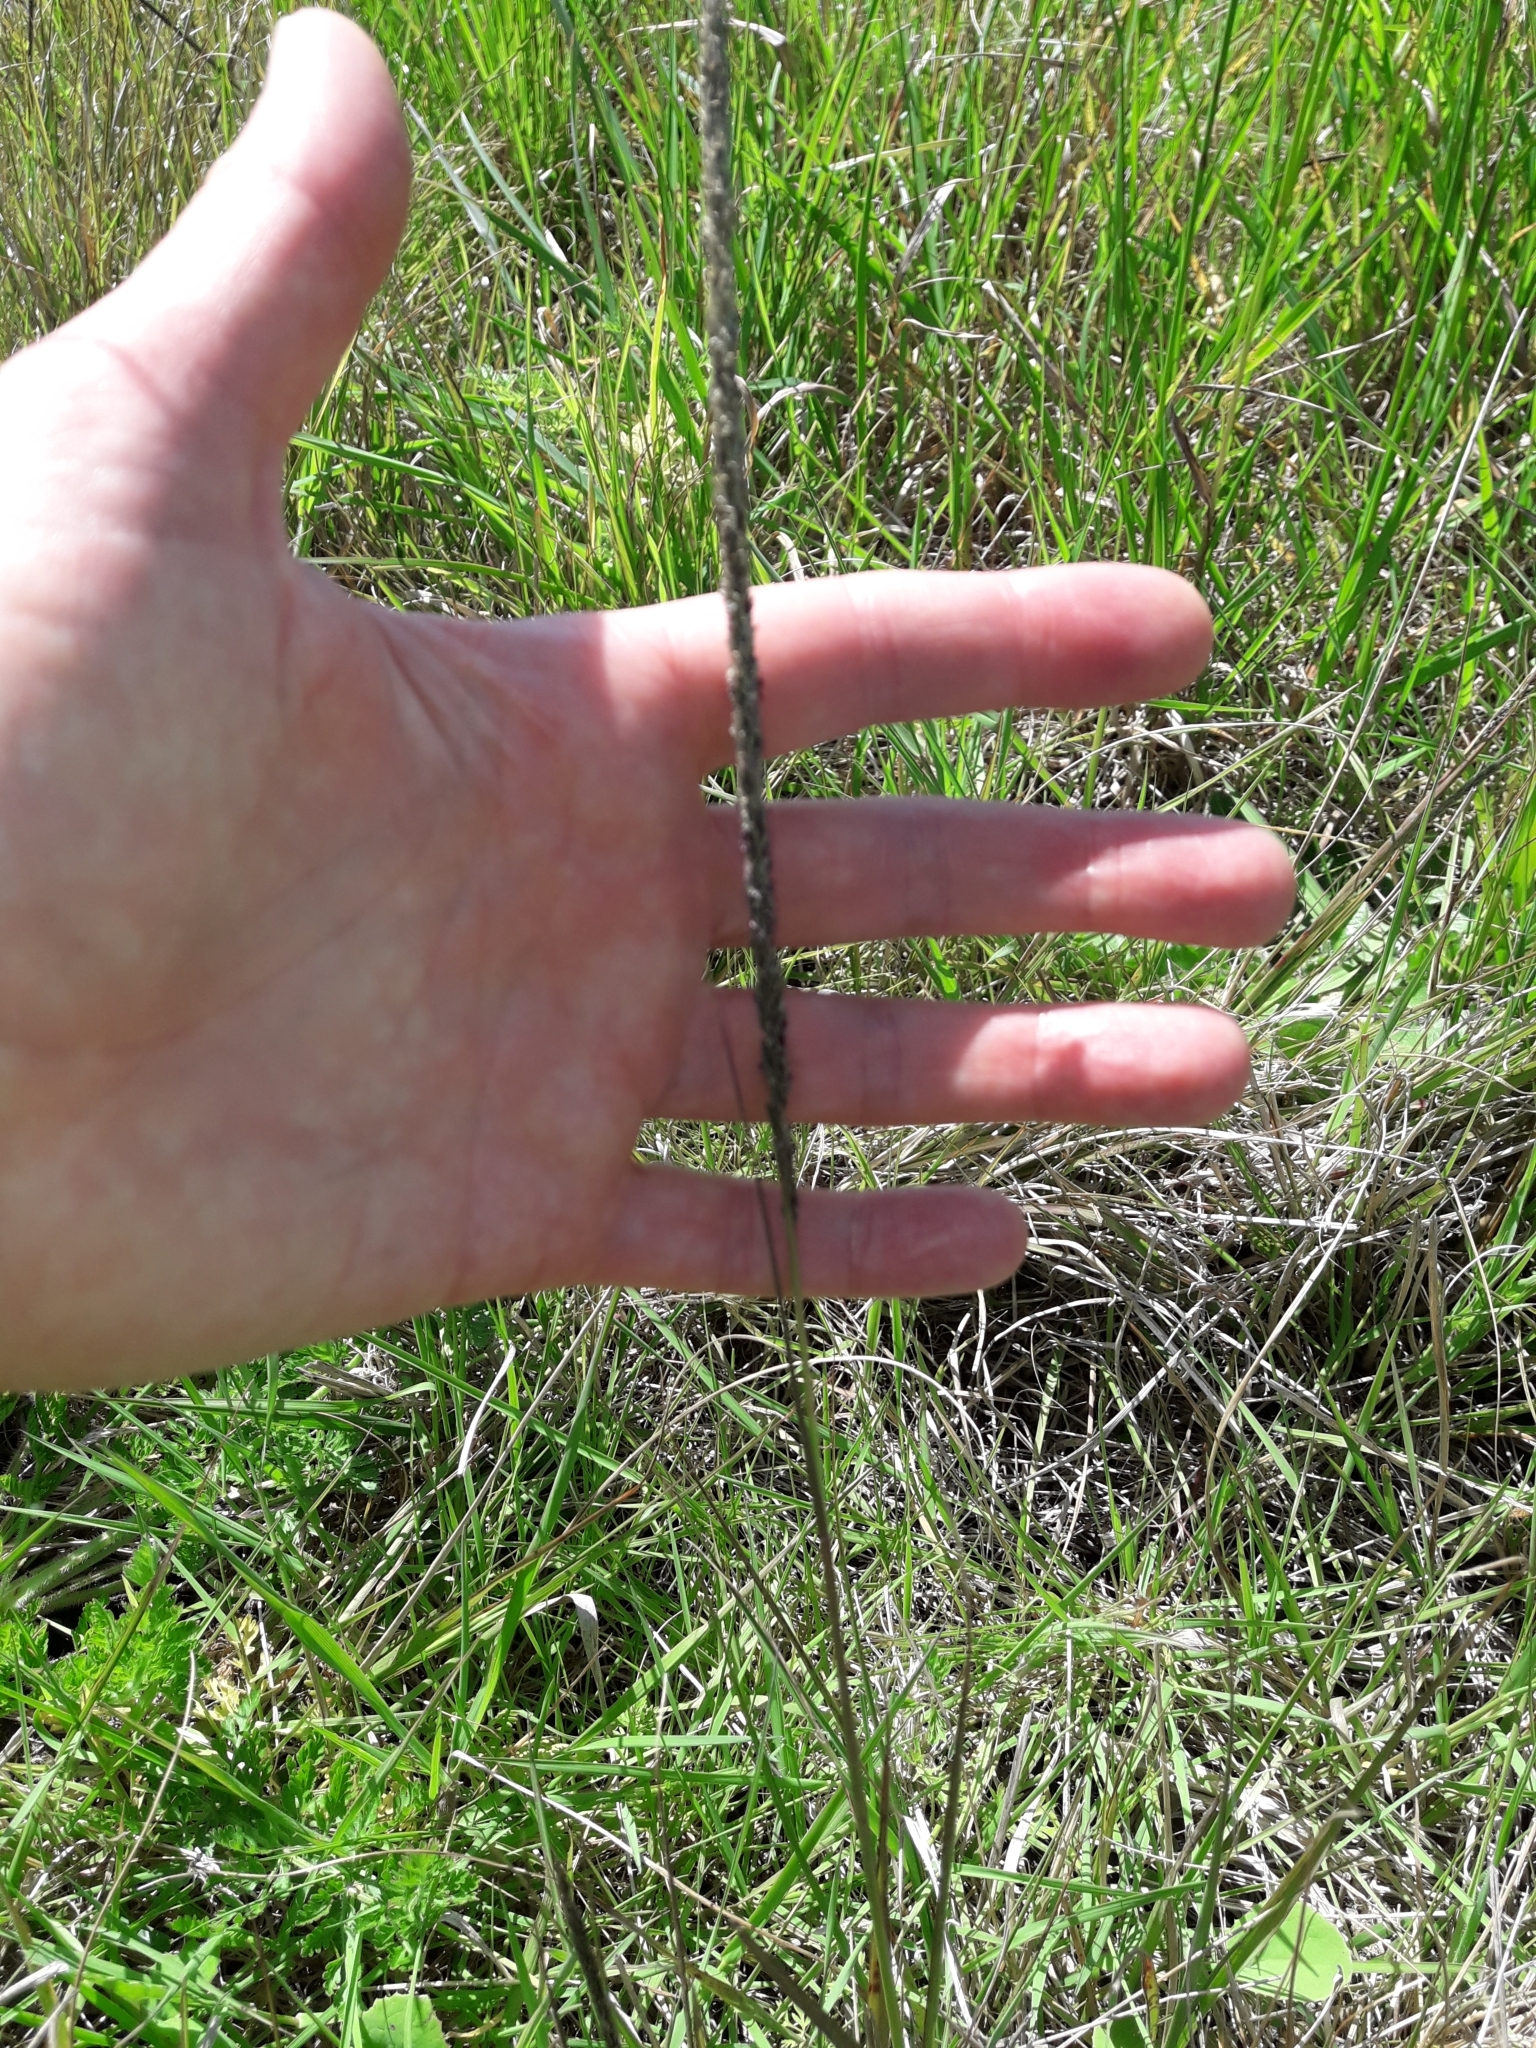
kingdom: Plantae
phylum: Tracheophyta
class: Liliopsida
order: Poales
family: Poaceae
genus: Sporobolus
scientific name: Sporobolus africanus
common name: African dropseed
